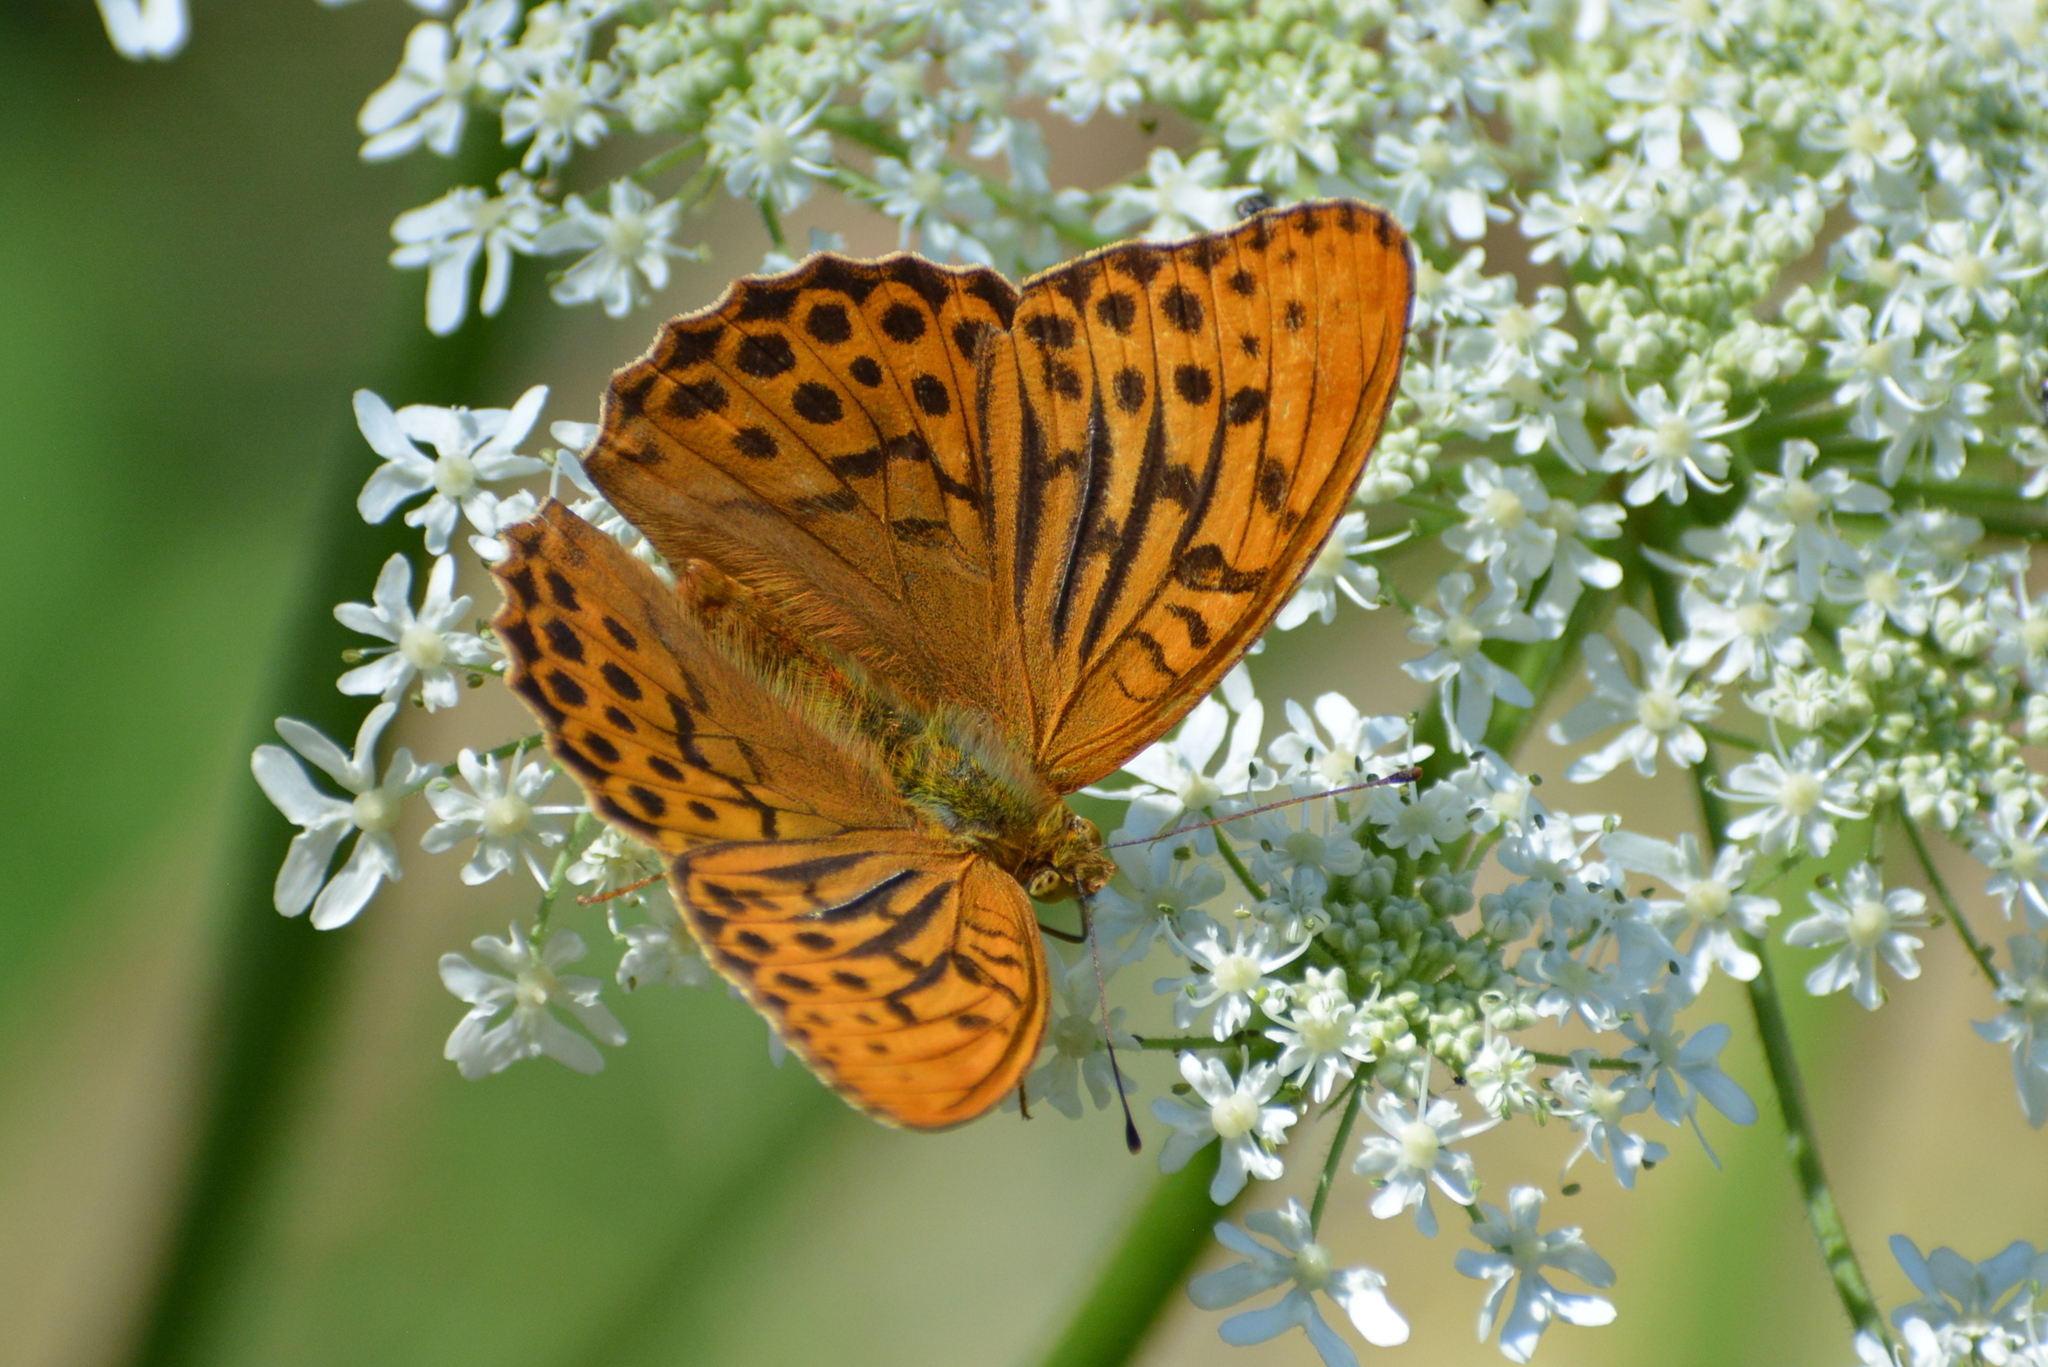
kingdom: Animalia
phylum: Arthropoda
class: Insecta
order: Lepidoptera
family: Nymphalidae
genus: Argynnis
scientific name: Argynnis paphia
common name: Silver-washed fritillary
